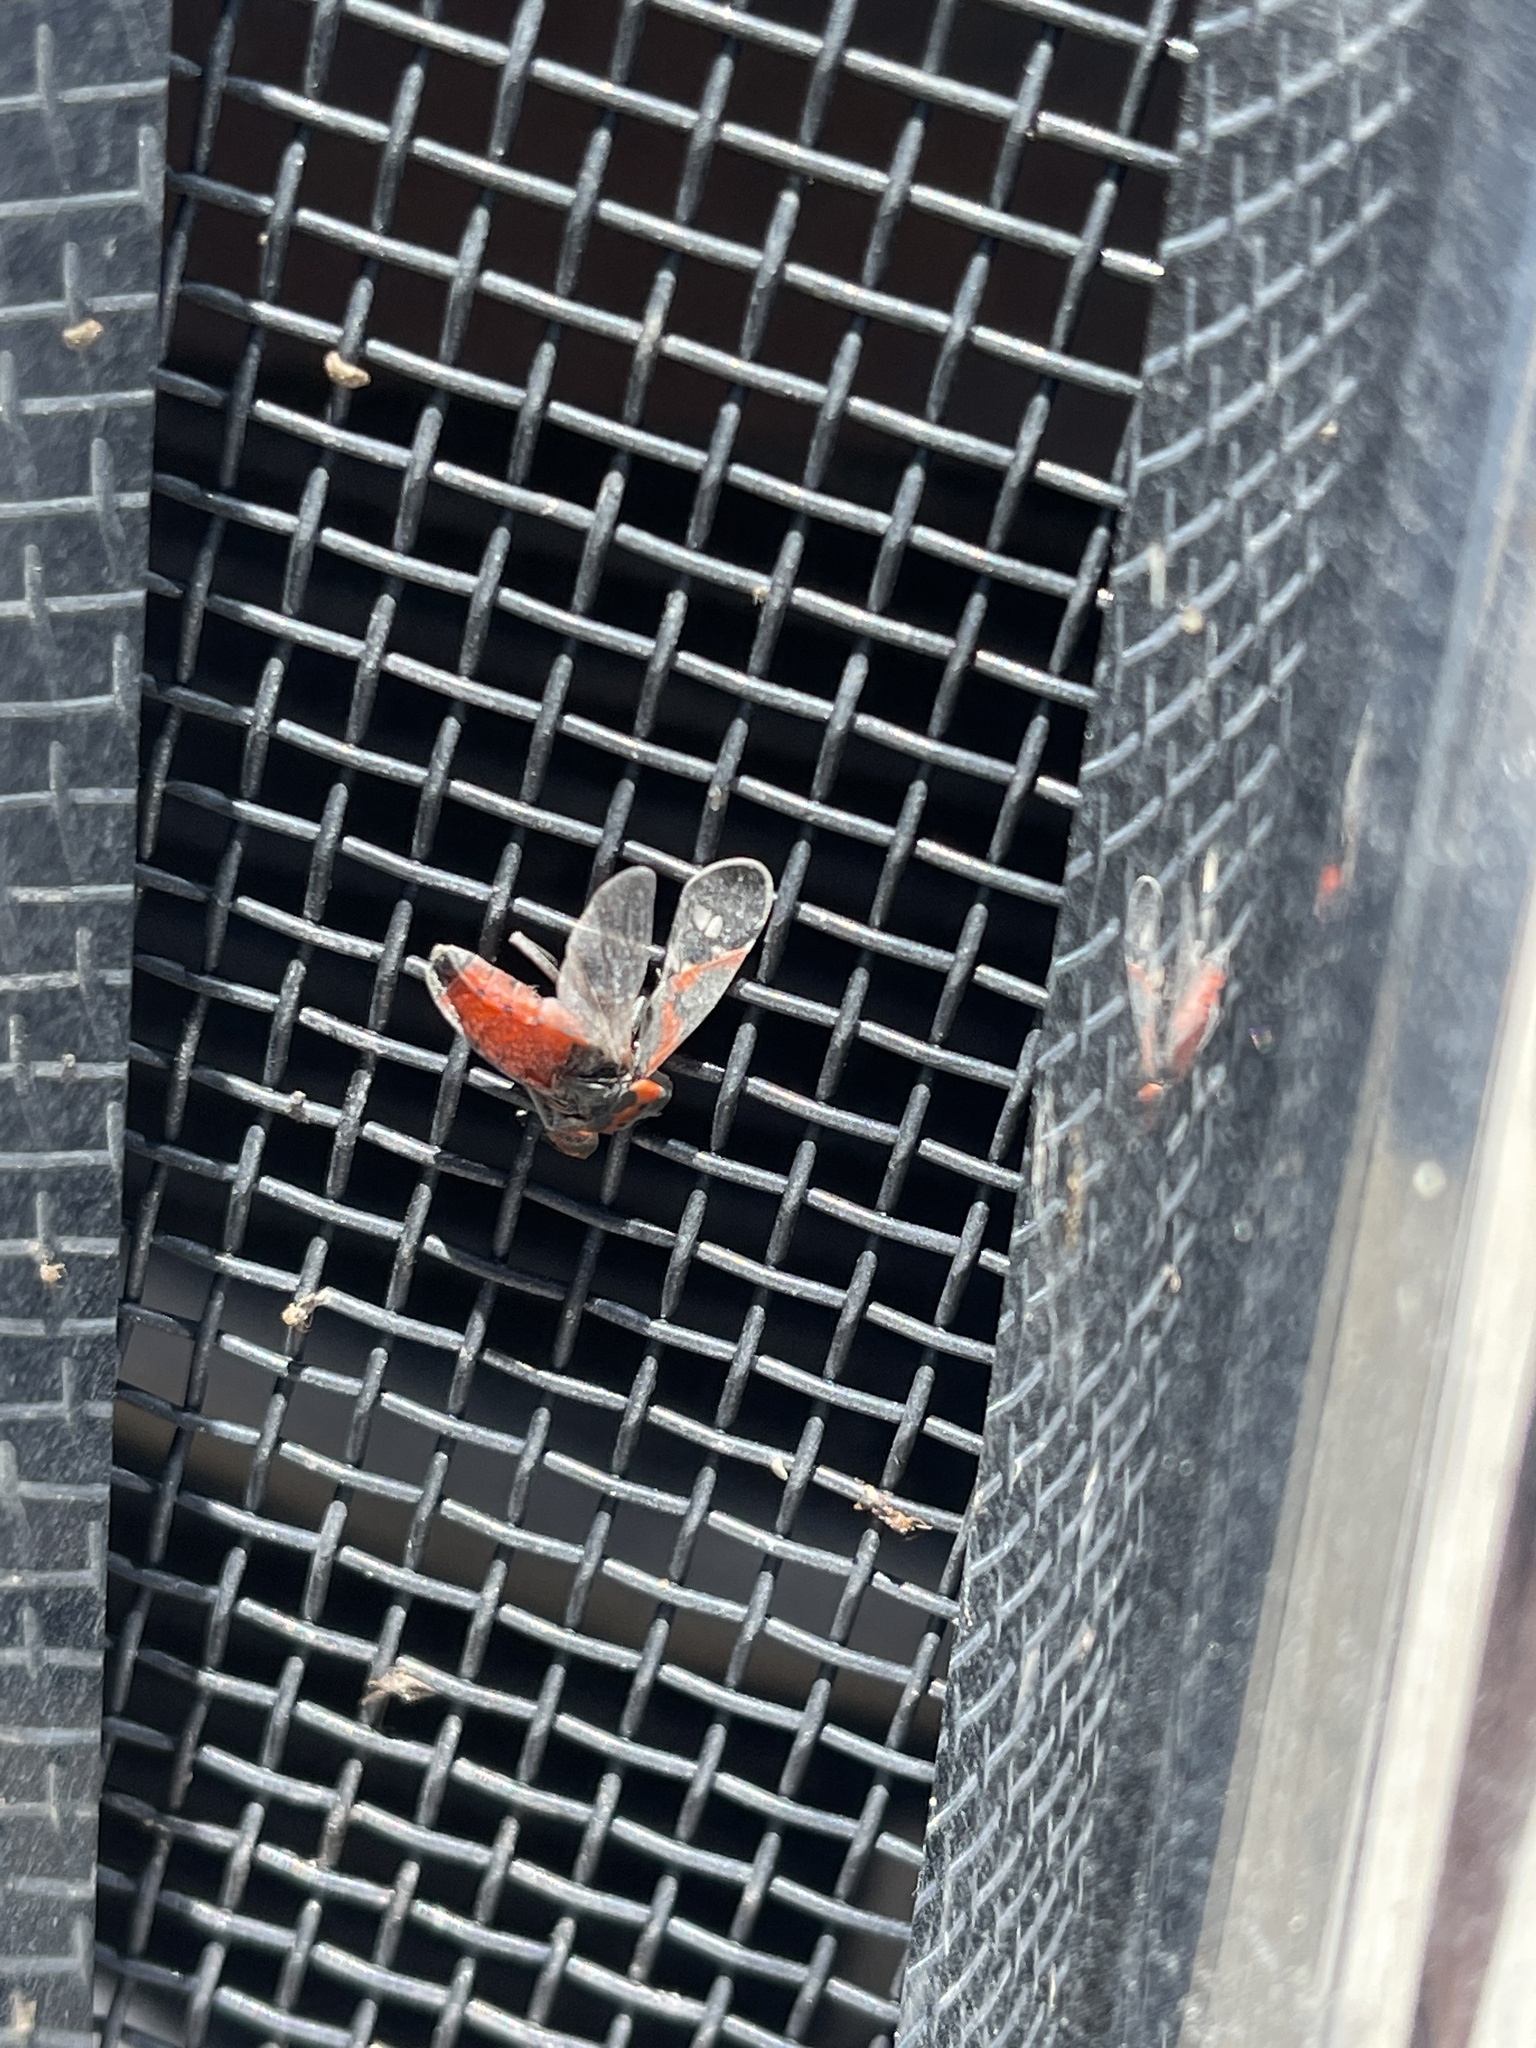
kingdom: Animalia
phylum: Arthropoda
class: Insecta
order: Hemiptera
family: Lygaeidae
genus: Lygaeus
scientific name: Lygaeus kalmii
